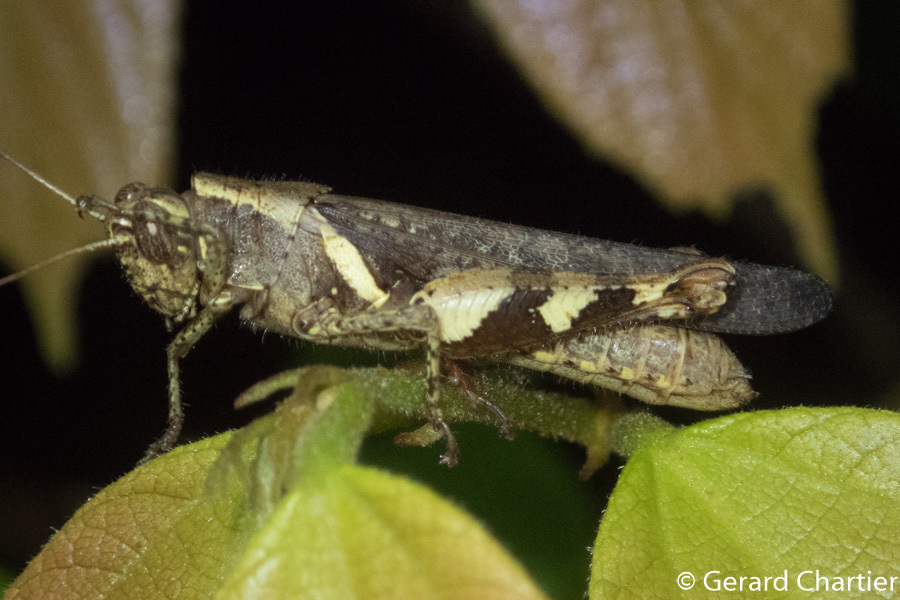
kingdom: Animalia
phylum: Arthropoda
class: Insecta
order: Orthoptera
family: Acrididae
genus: Xenocatantops
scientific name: Xenocatantops humile
